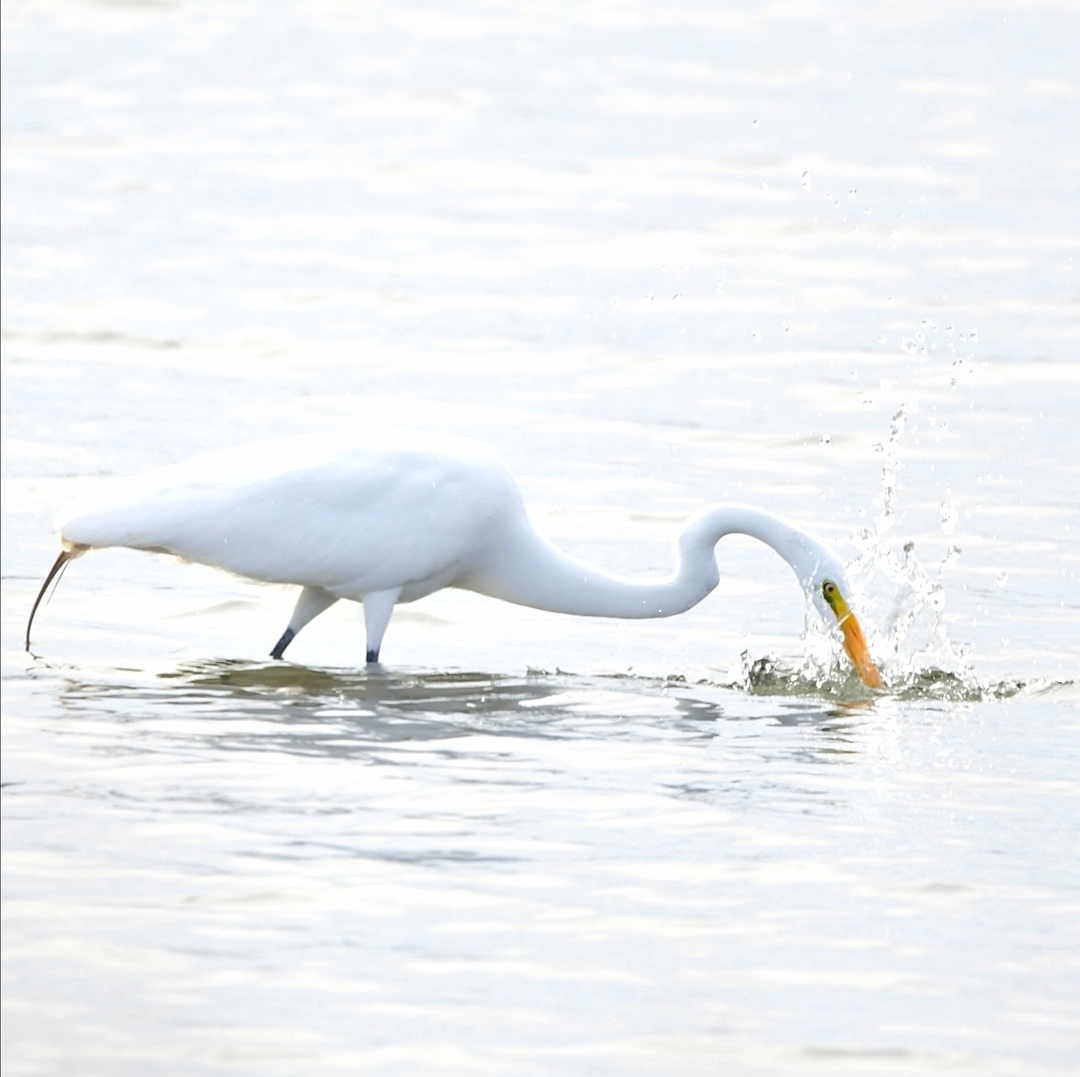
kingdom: Animalia
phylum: Chordata
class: Aves
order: Pelecaniformes
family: Ardeidae
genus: Ardea
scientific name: Ardea alba
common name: Great egret
